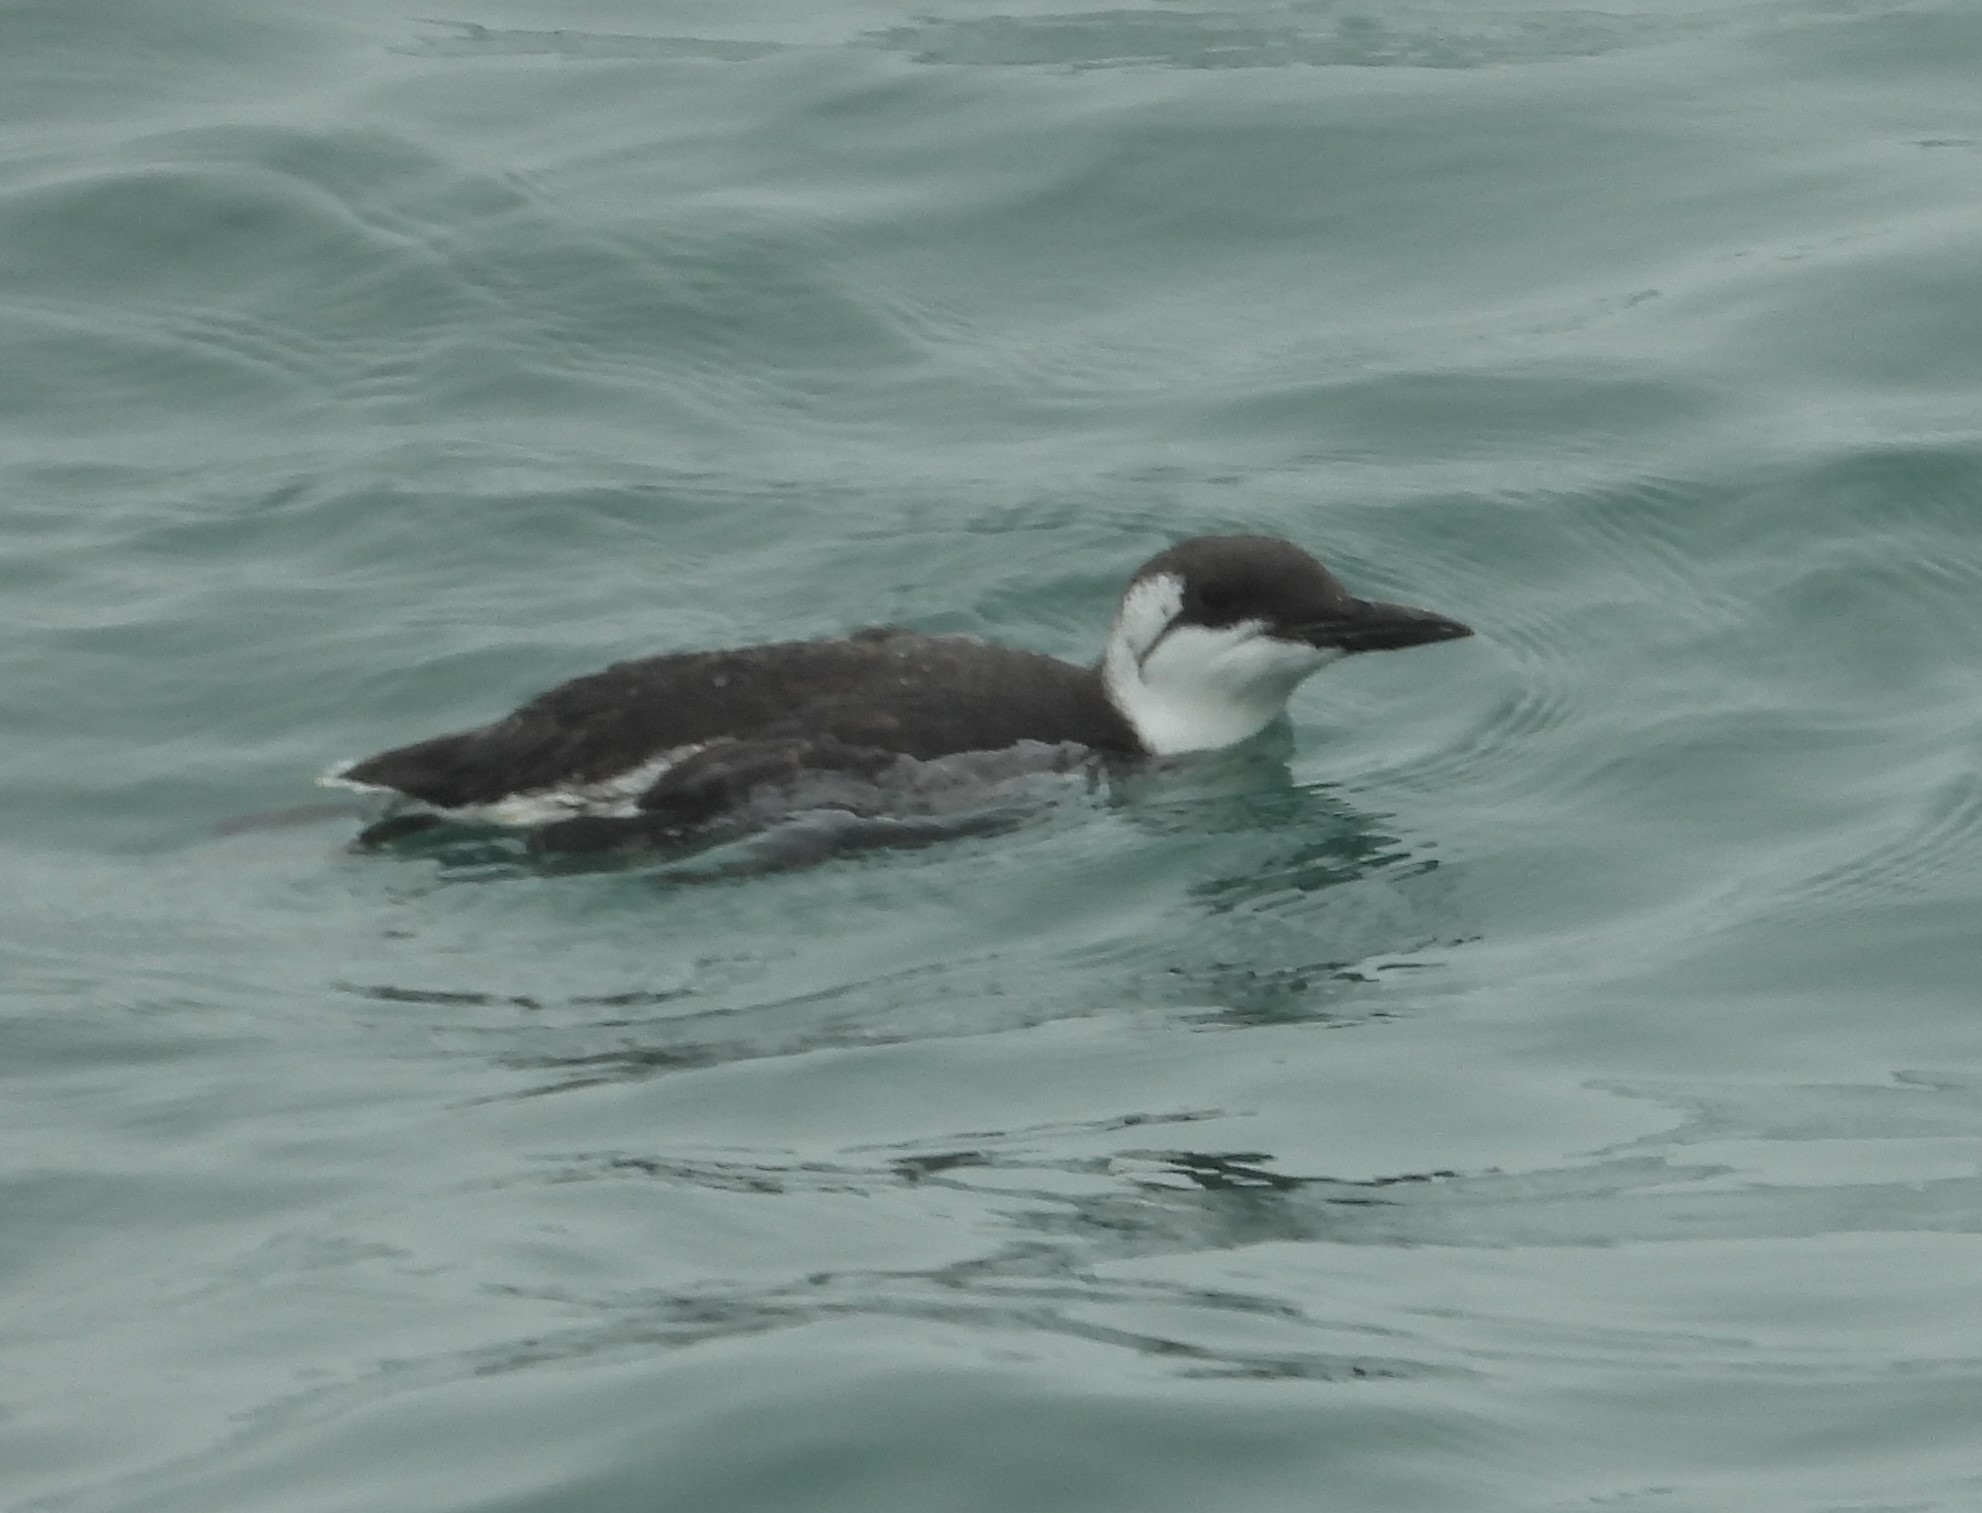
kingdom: Animalia
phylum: Chordata
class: Aves
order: Charadriiformes
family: Alcidae
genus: Uria
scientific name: Uria aalge
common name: Common murre
